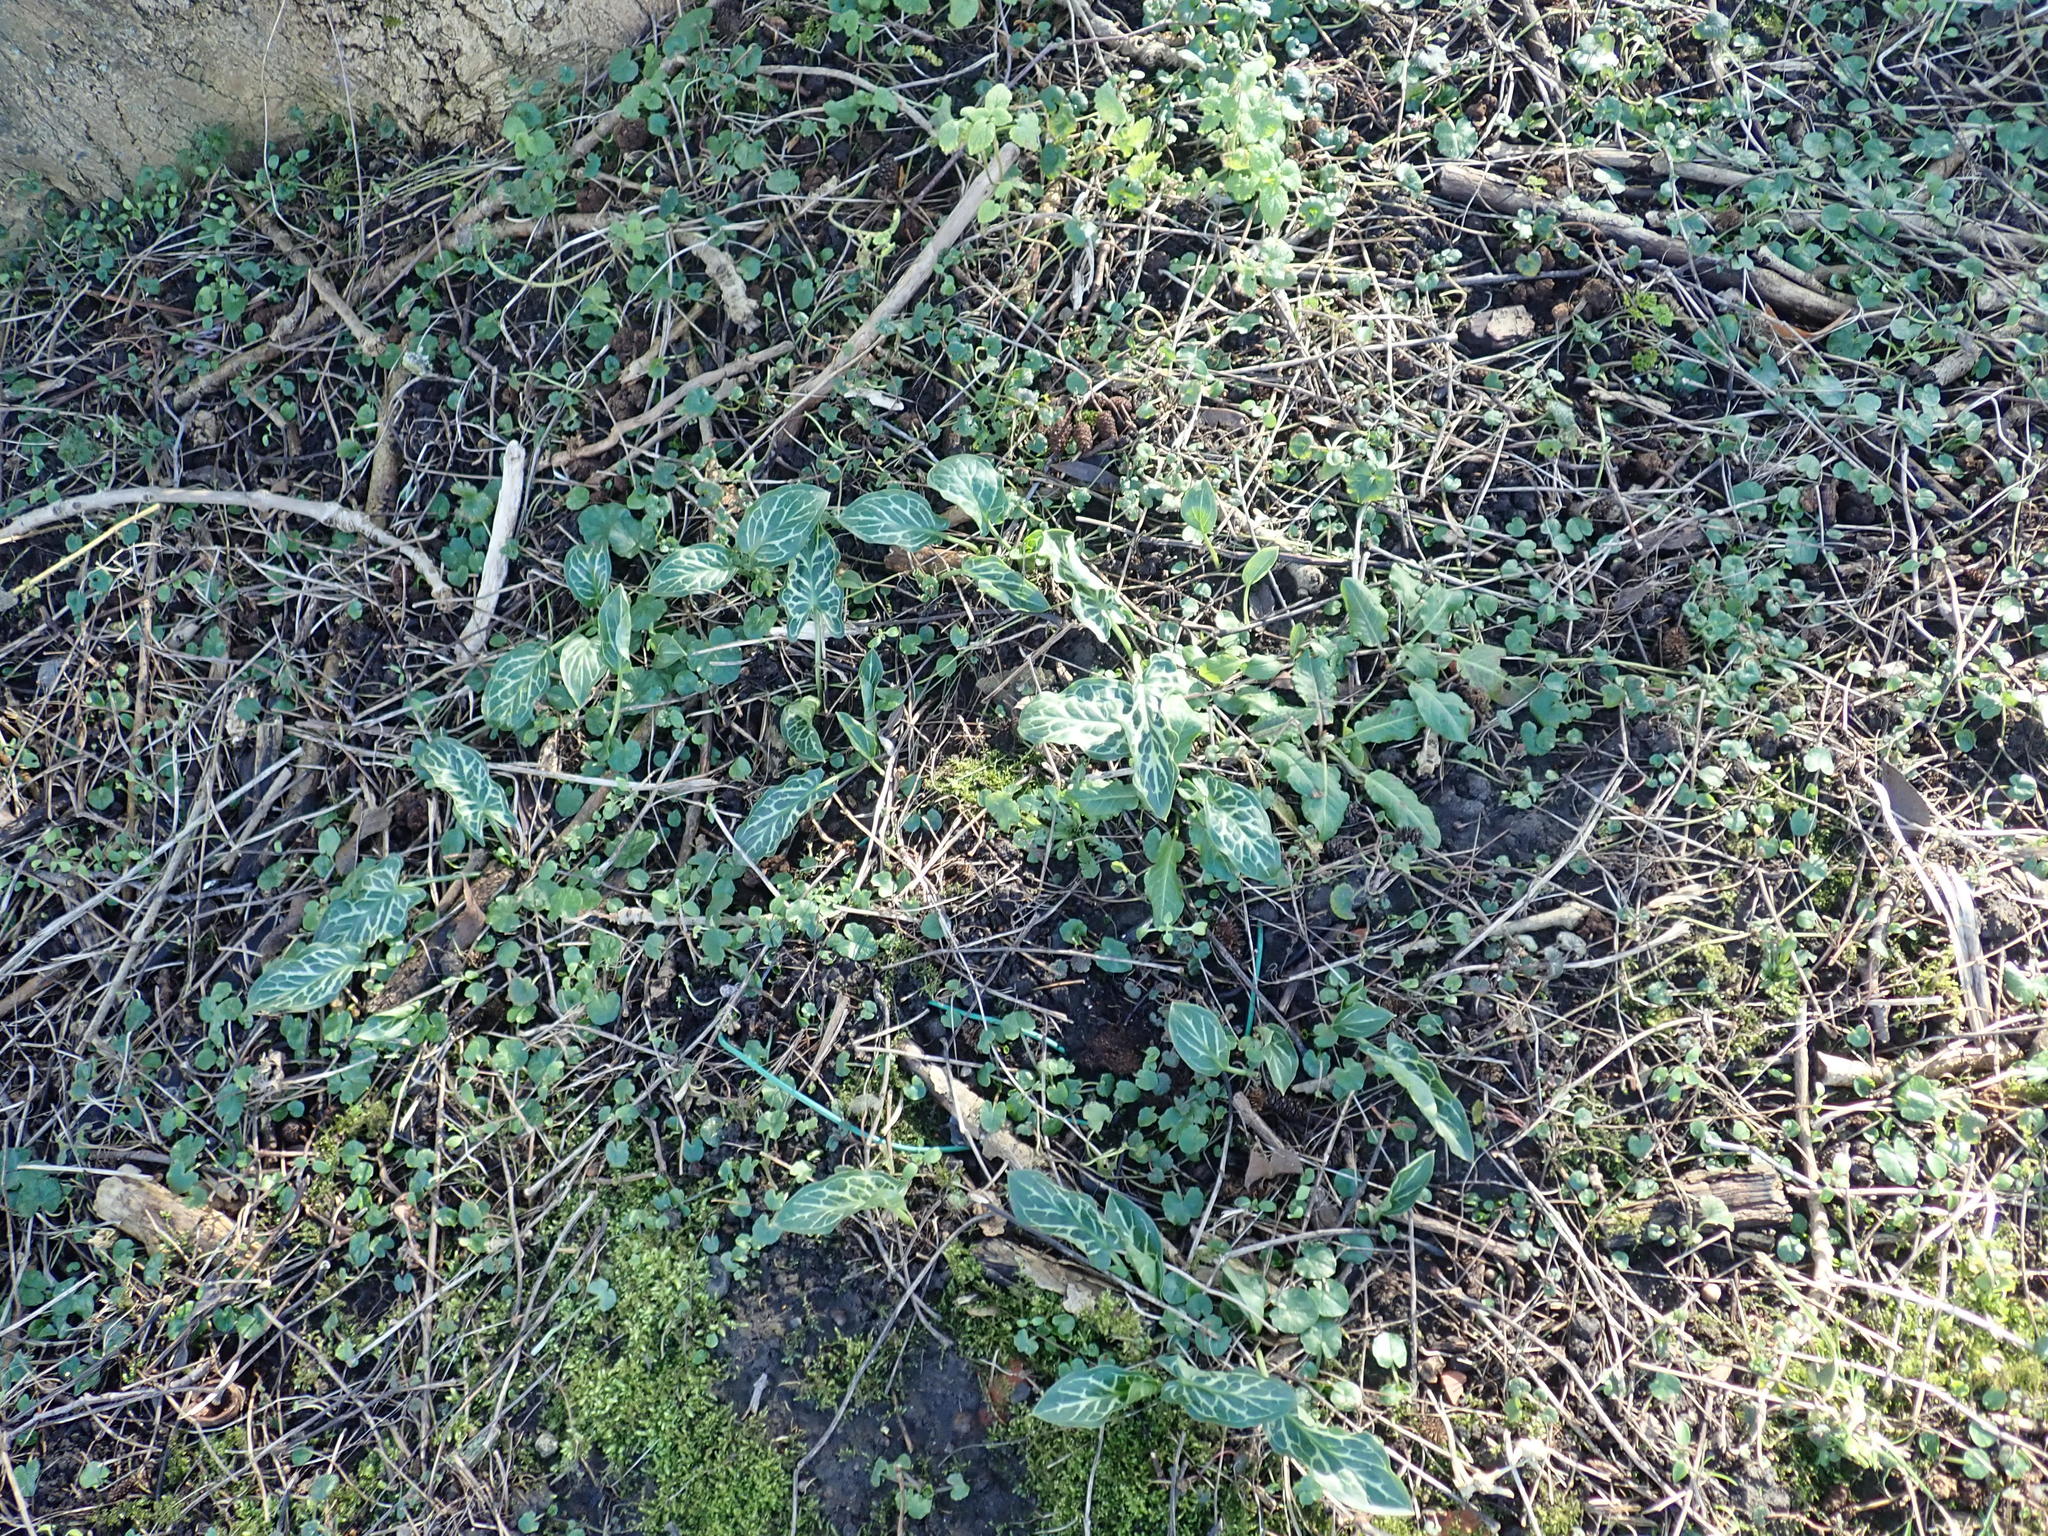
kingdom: Plantae
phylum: Tracheophyta
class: Liliopsida
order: Alismatales
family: Araceae
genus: Arum
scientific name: Arum italicum
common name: Italian lords-and-ladies
